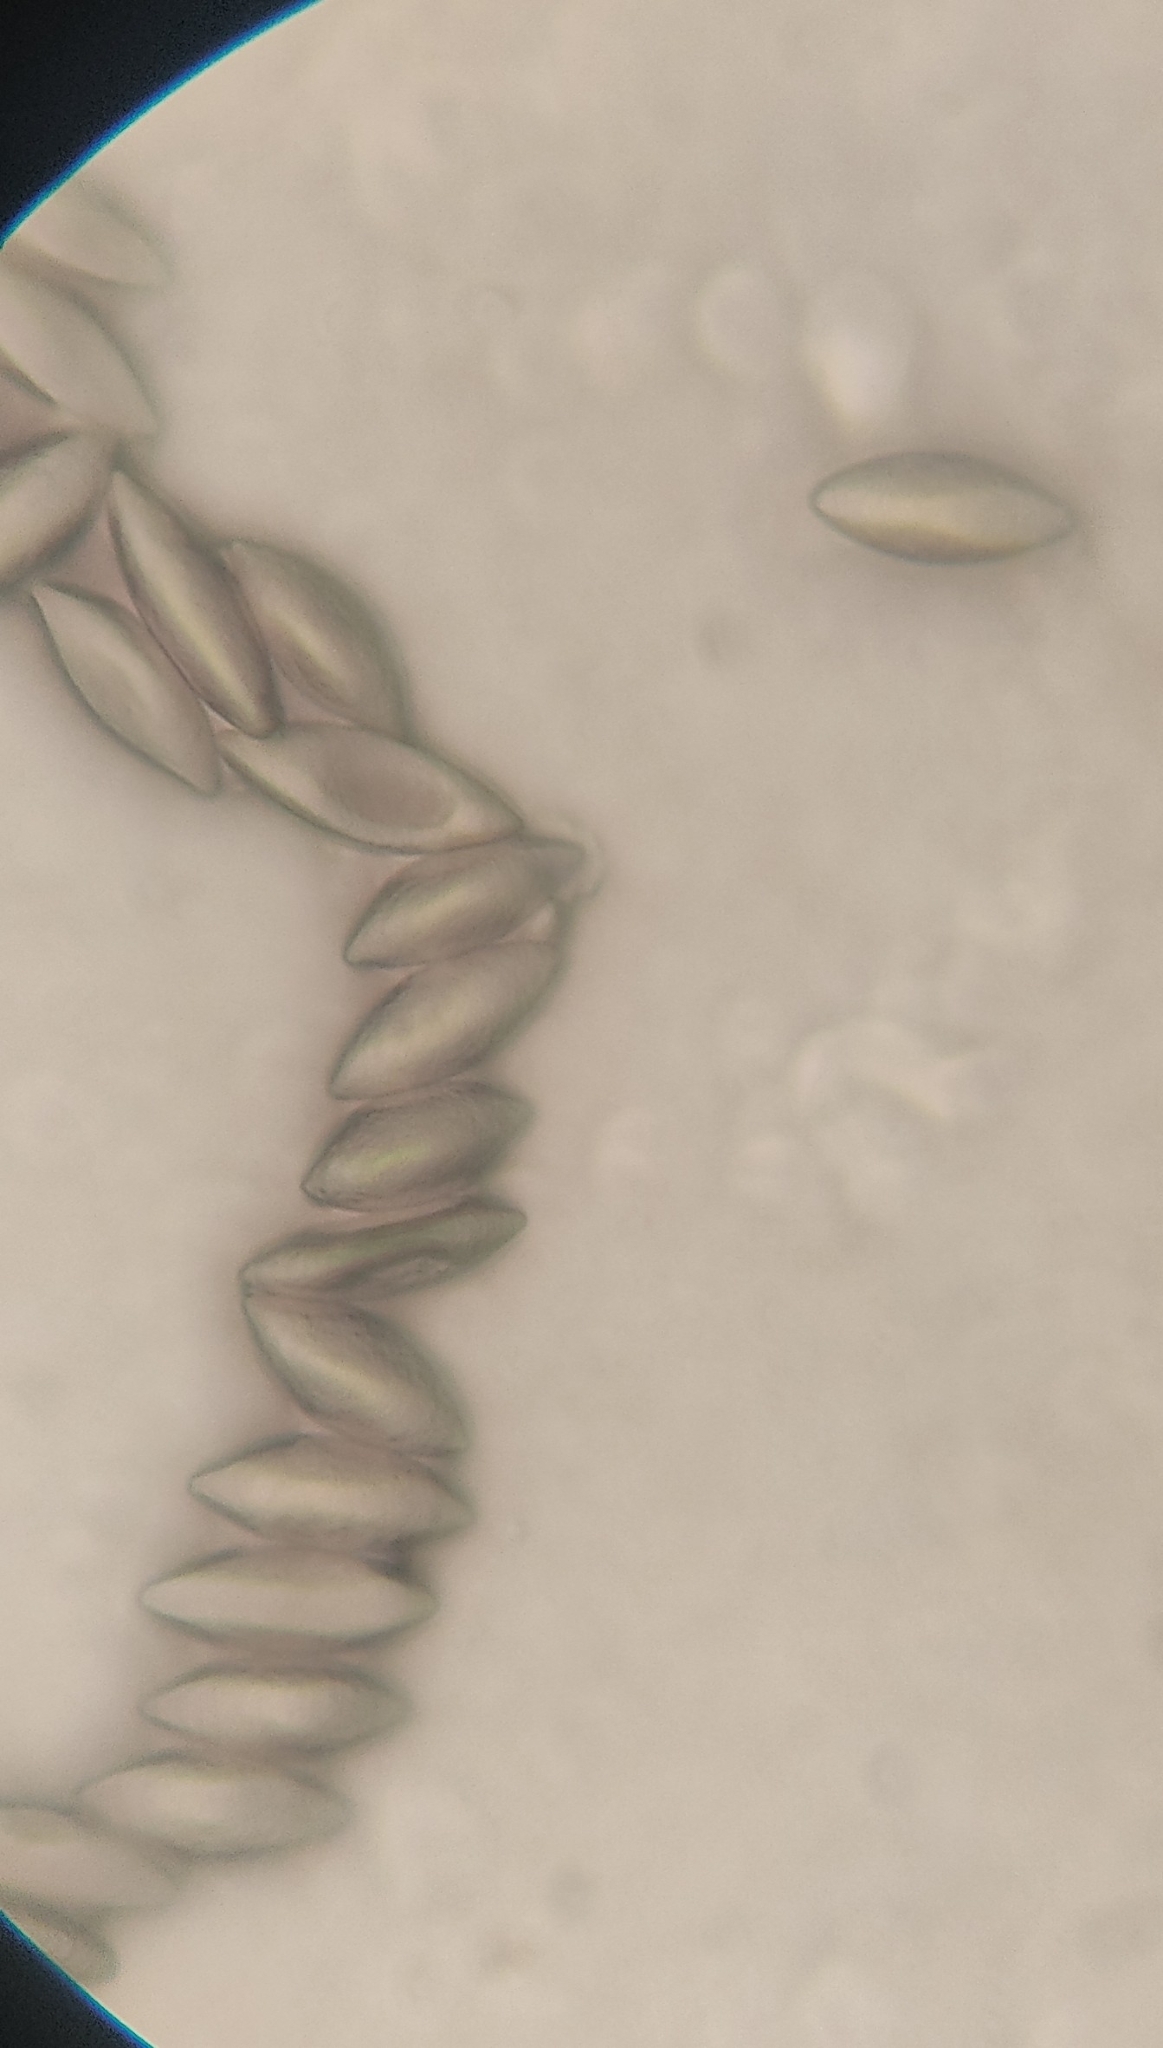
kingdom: Fungi
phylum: Mucoromycota
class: Mucoromycetes
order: Mucorales
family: Phycomycetaceae
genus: Spinellus
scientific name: Spinellus fusiger
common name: Bonnet mould
